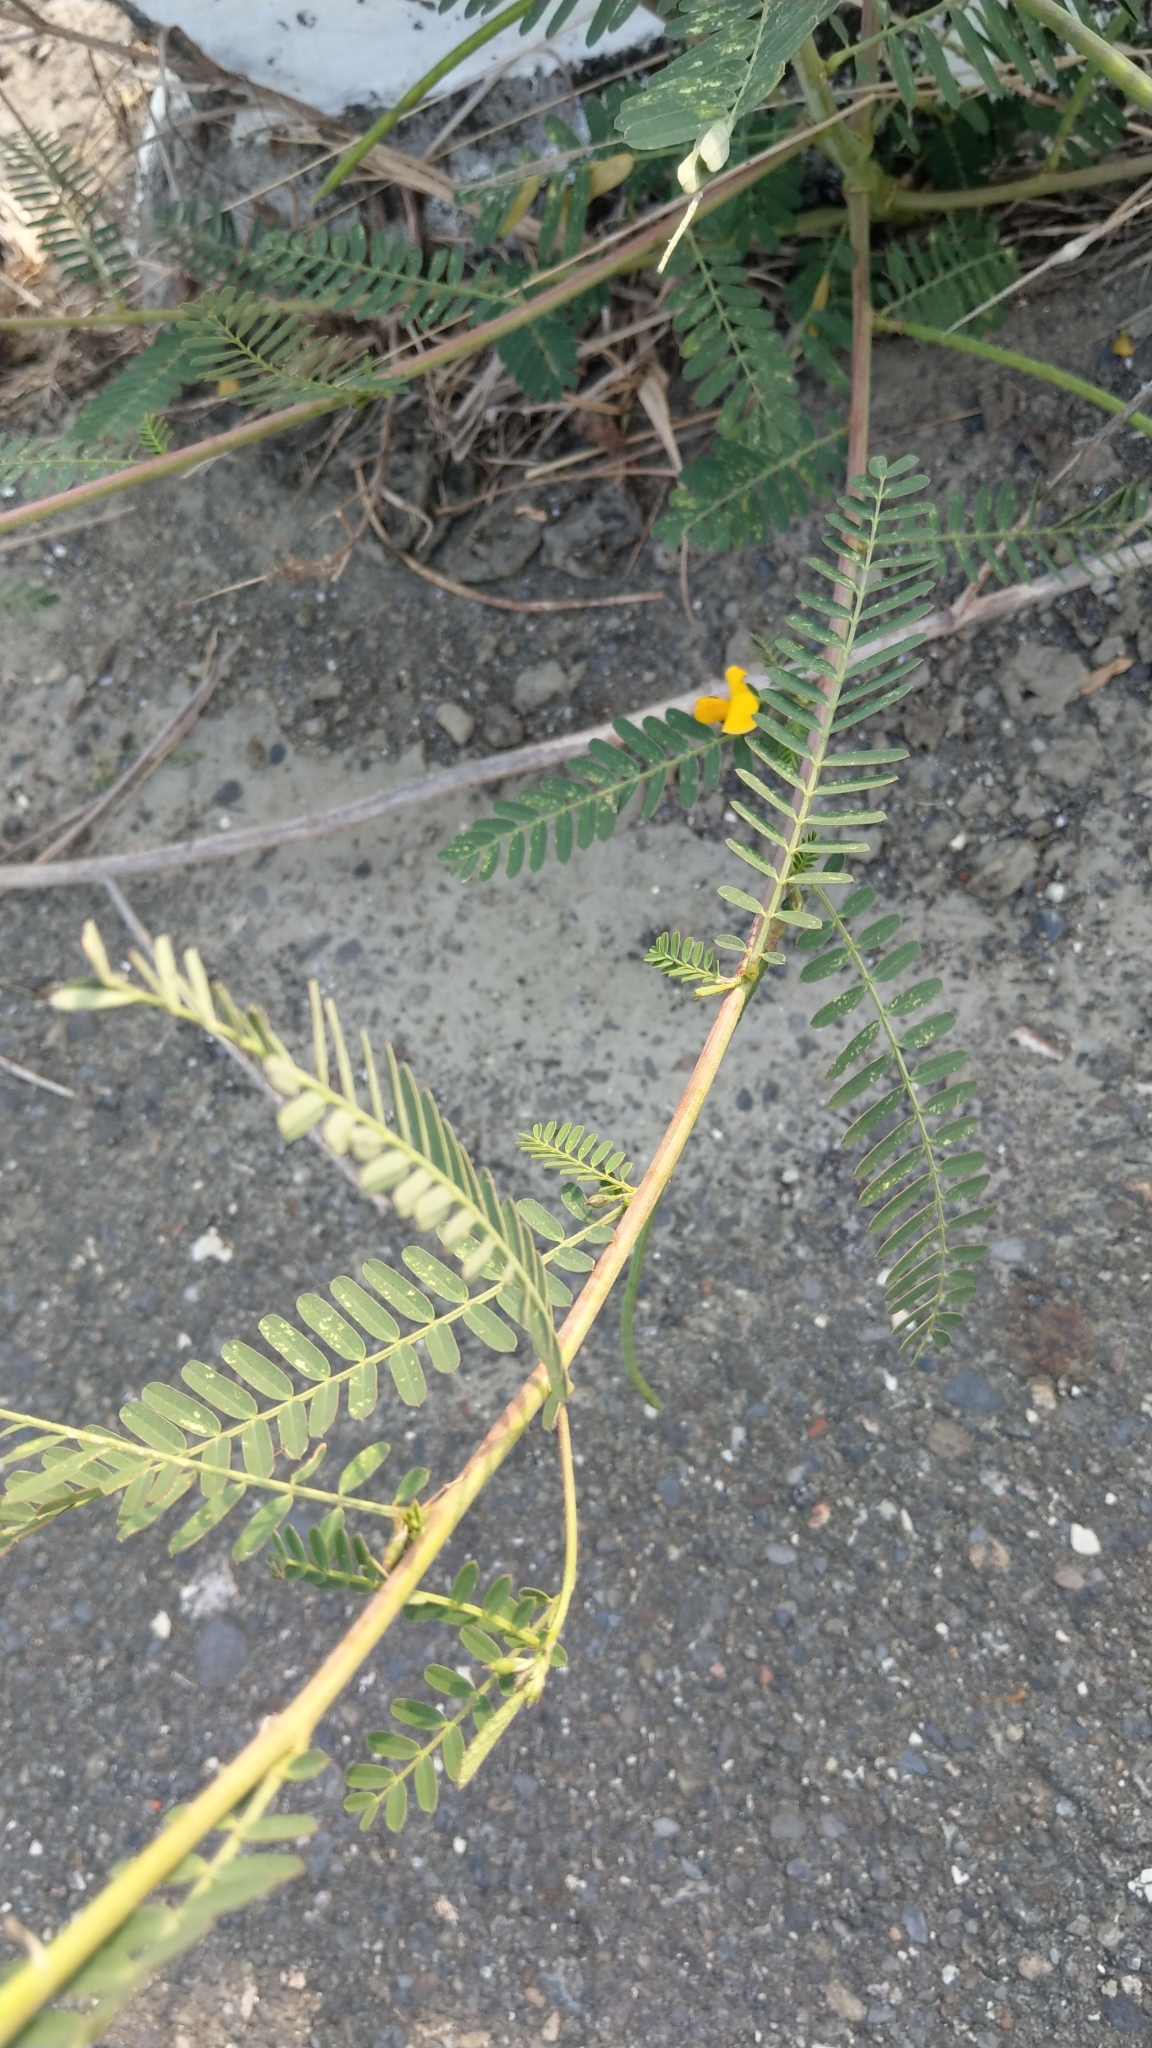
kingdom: Plantae
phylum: Tracheophyta
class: Magnoliopsida
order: Fabales
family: Fabaceae
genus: Sesbania
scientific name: Sesbania cannabina
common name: Canicha
